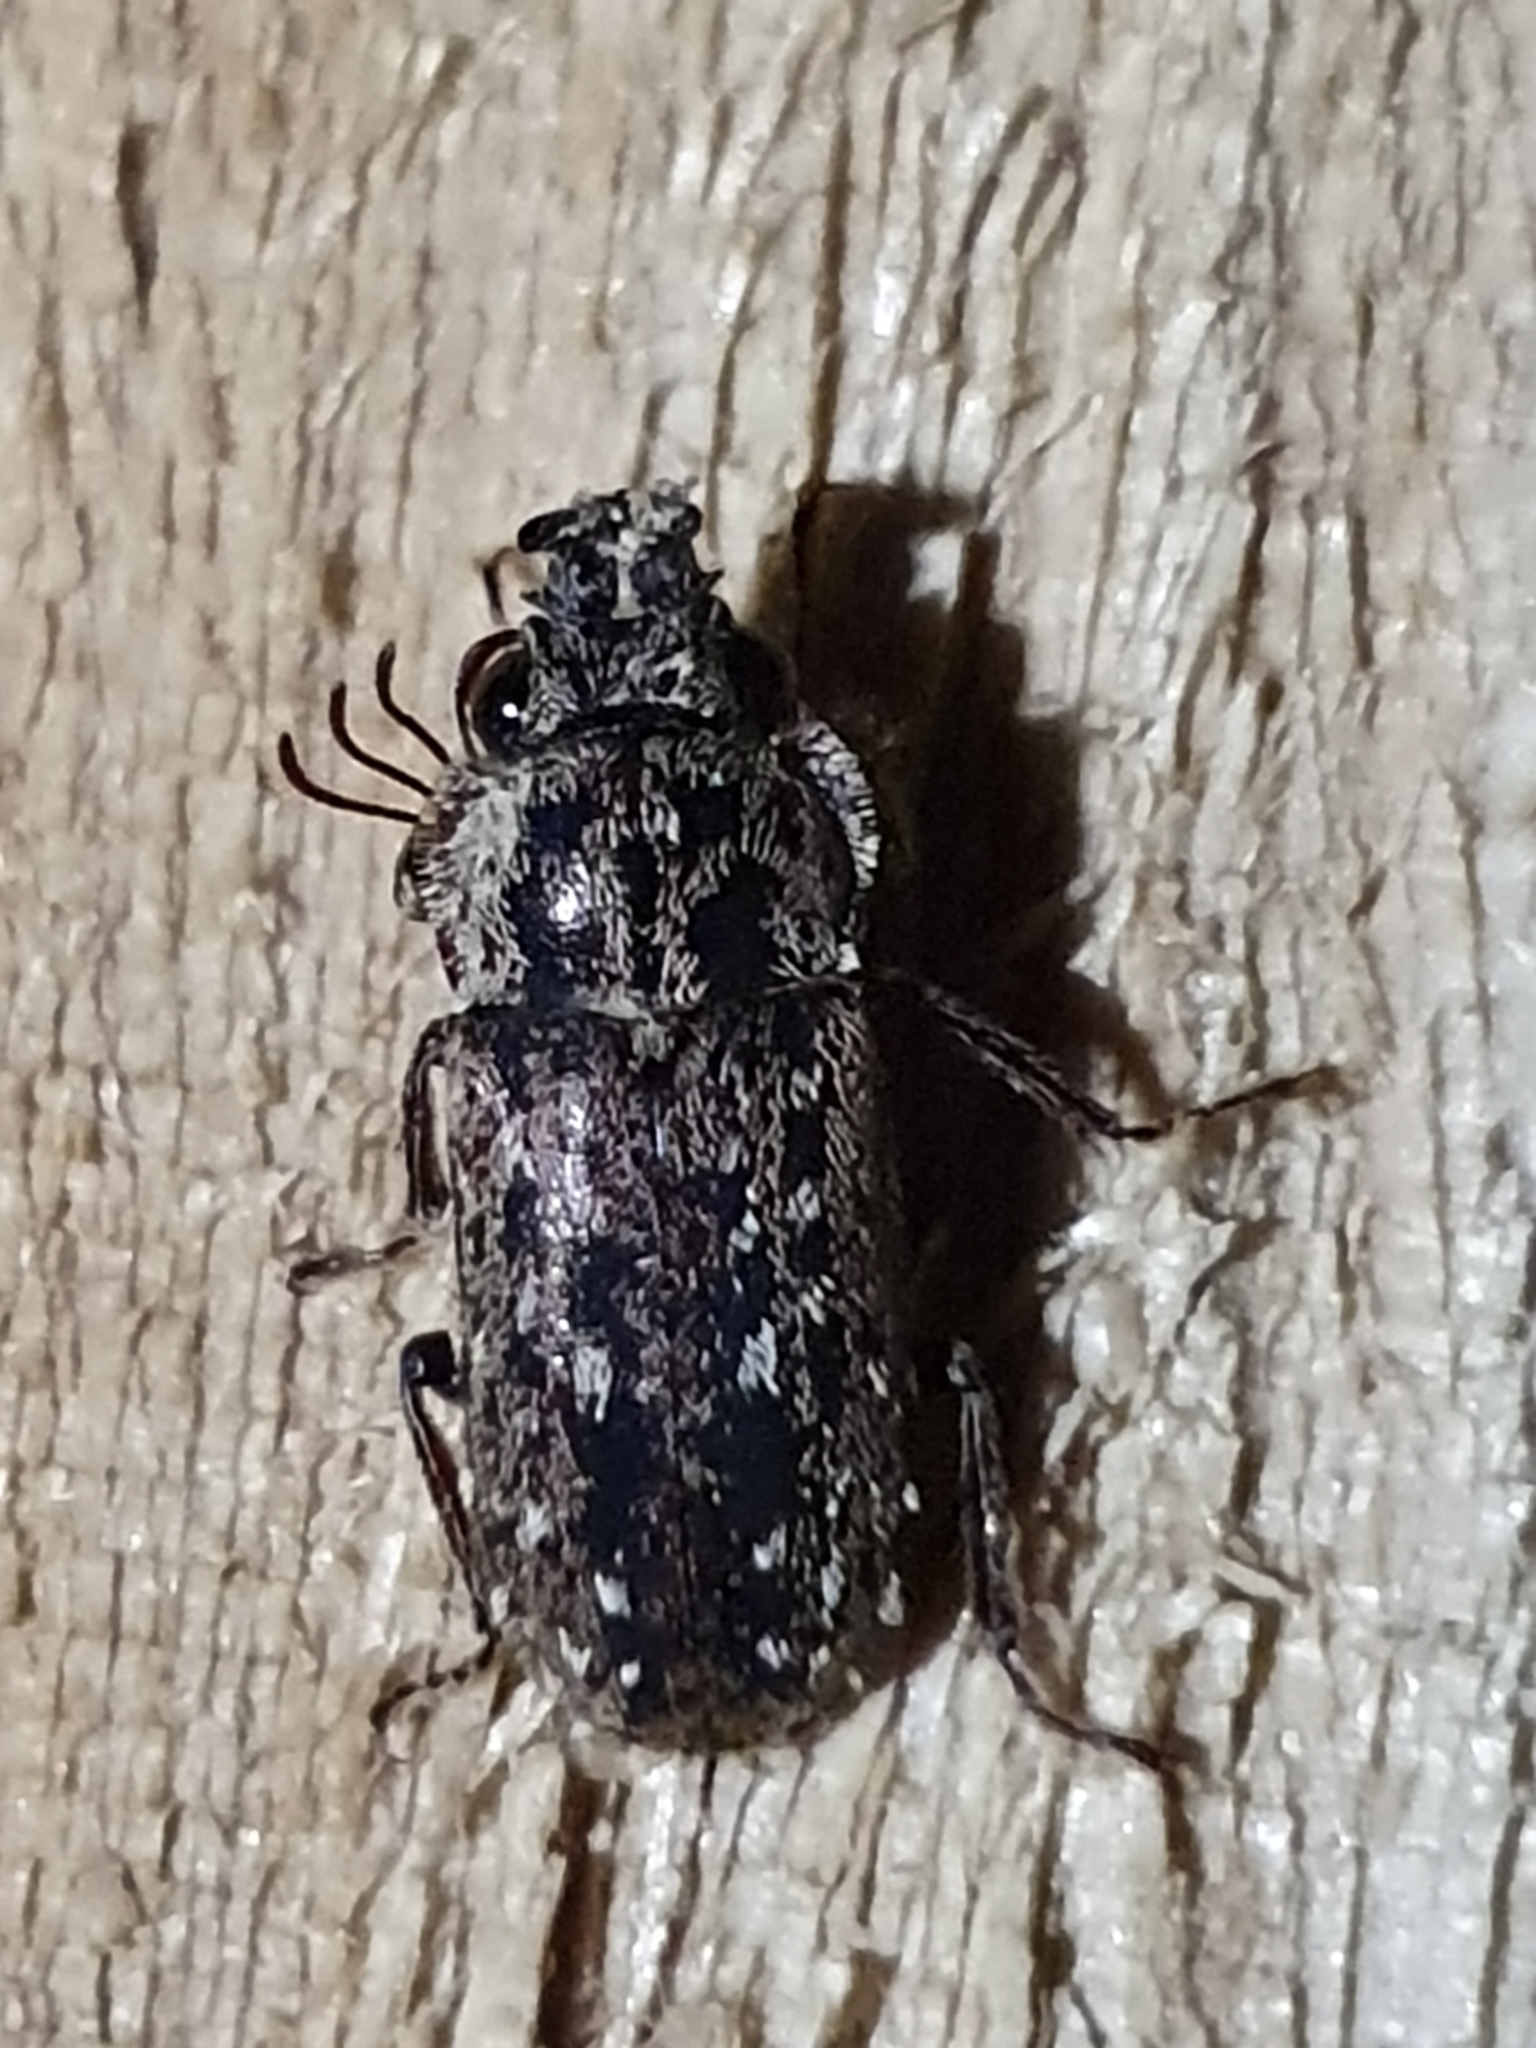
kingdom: Animalia
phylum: Arthropoda
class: Insecta
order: Coleoptera
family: Lucanidae
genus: Mitophyllus
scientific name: Mitophyllus irroratus
